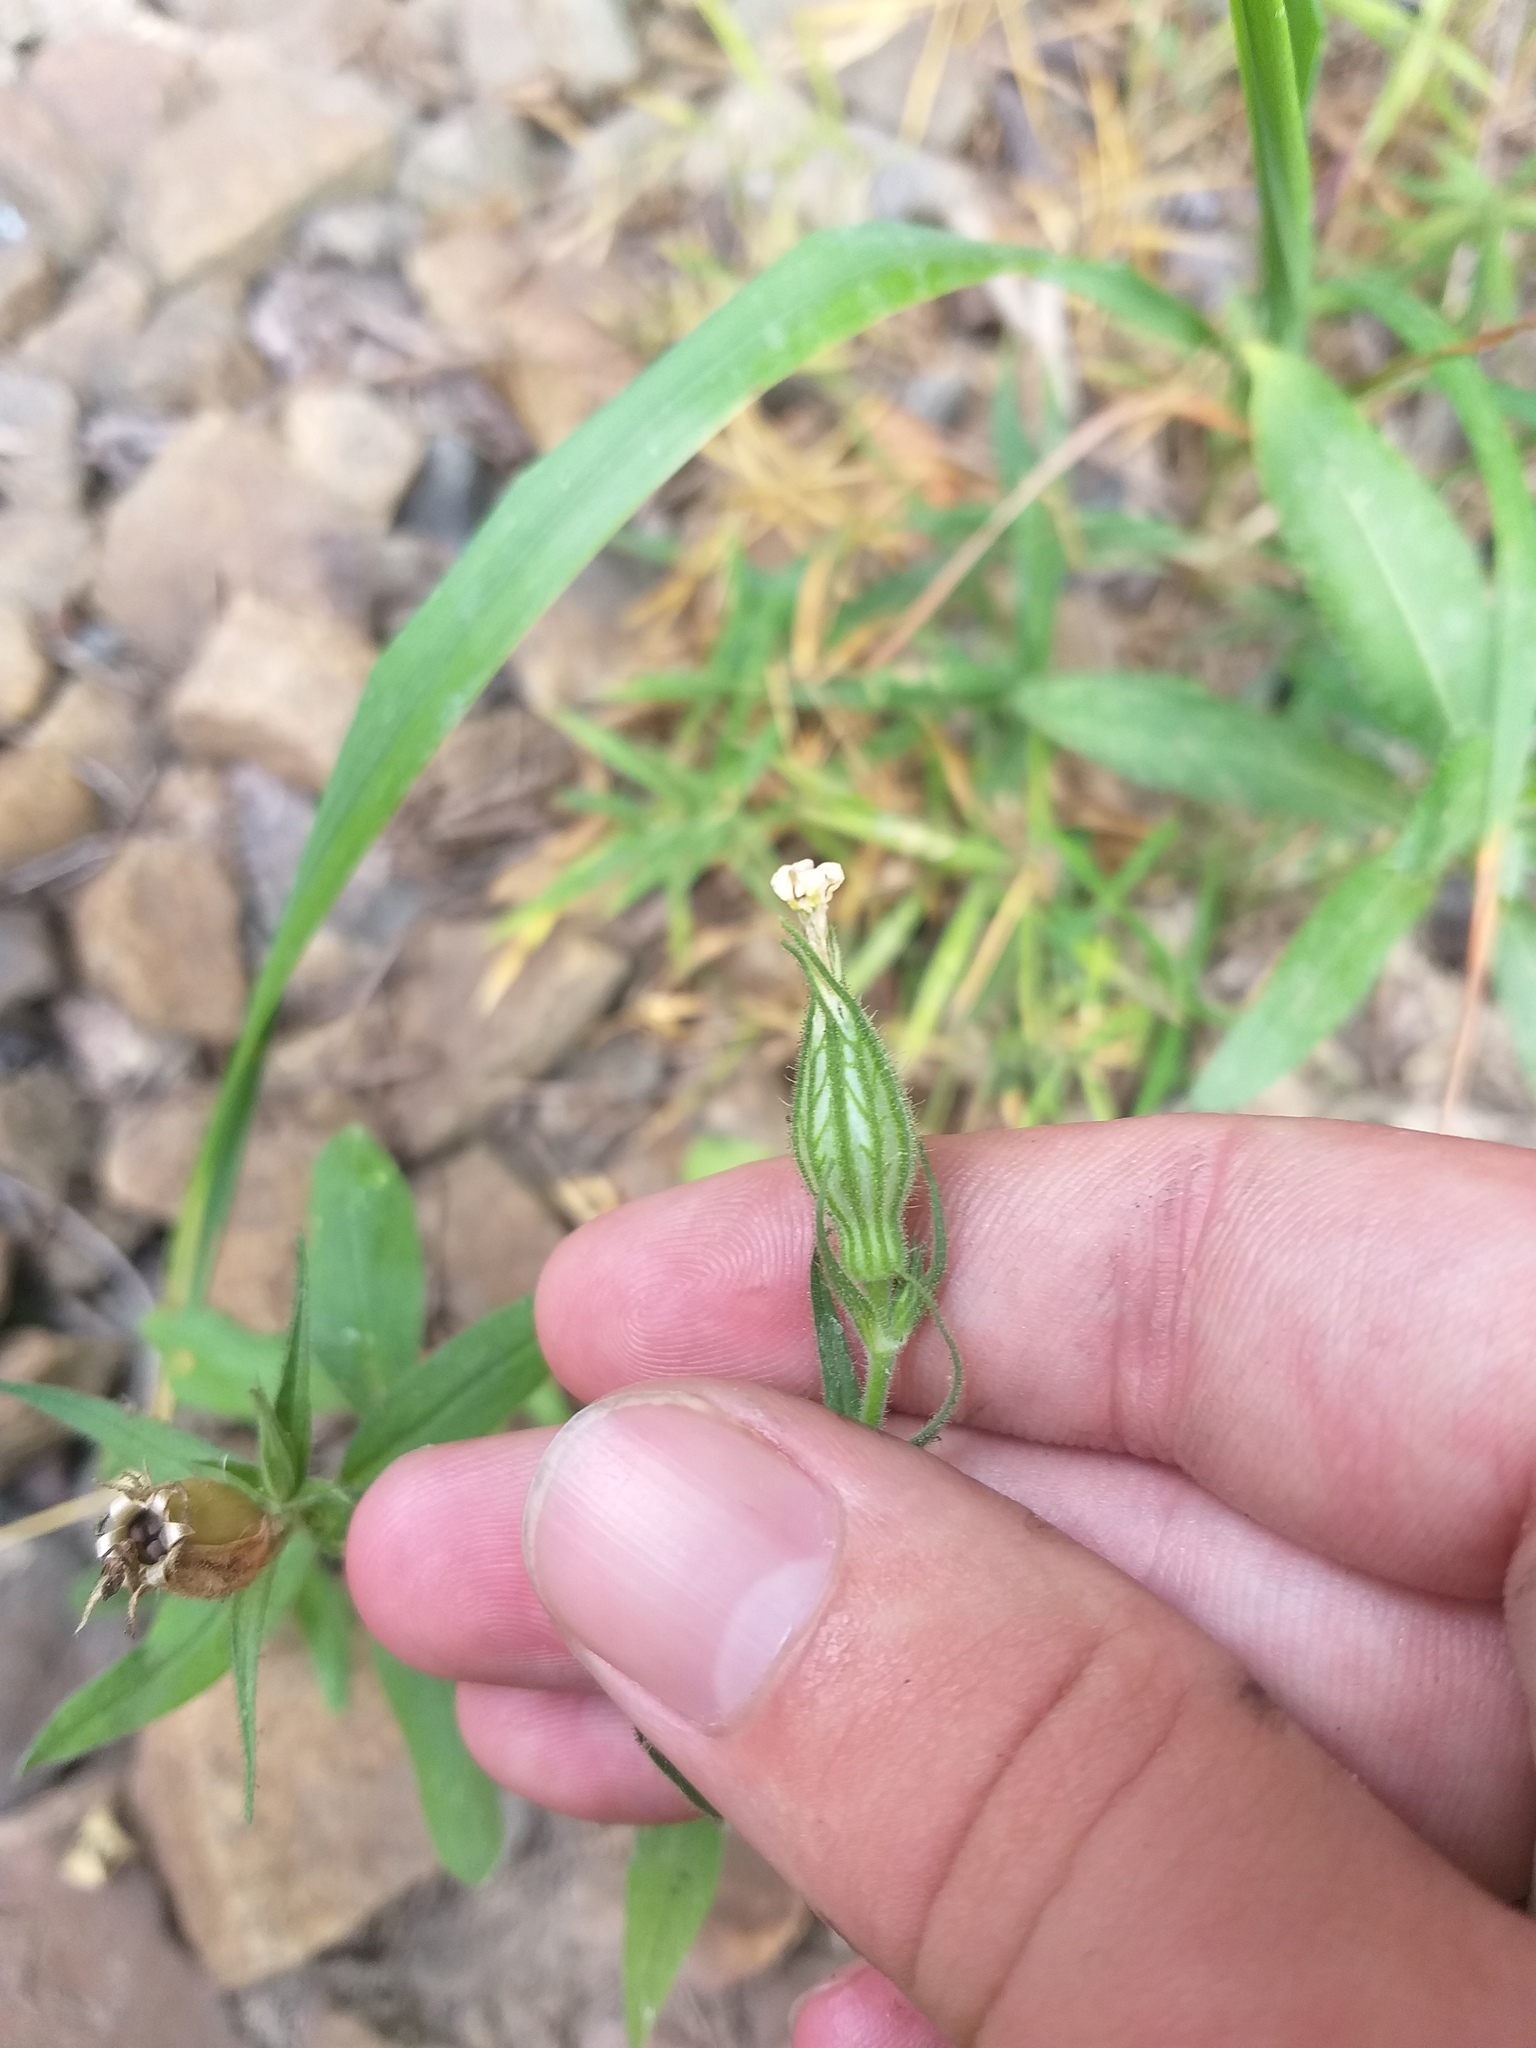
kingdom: Plantae
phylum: Tracheophyta
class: Magnoliopsida
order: Caryophyllales
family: Caryophyllaceae
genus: Silene
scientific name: Silene noctiflora
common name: Night-flowering catchfly
